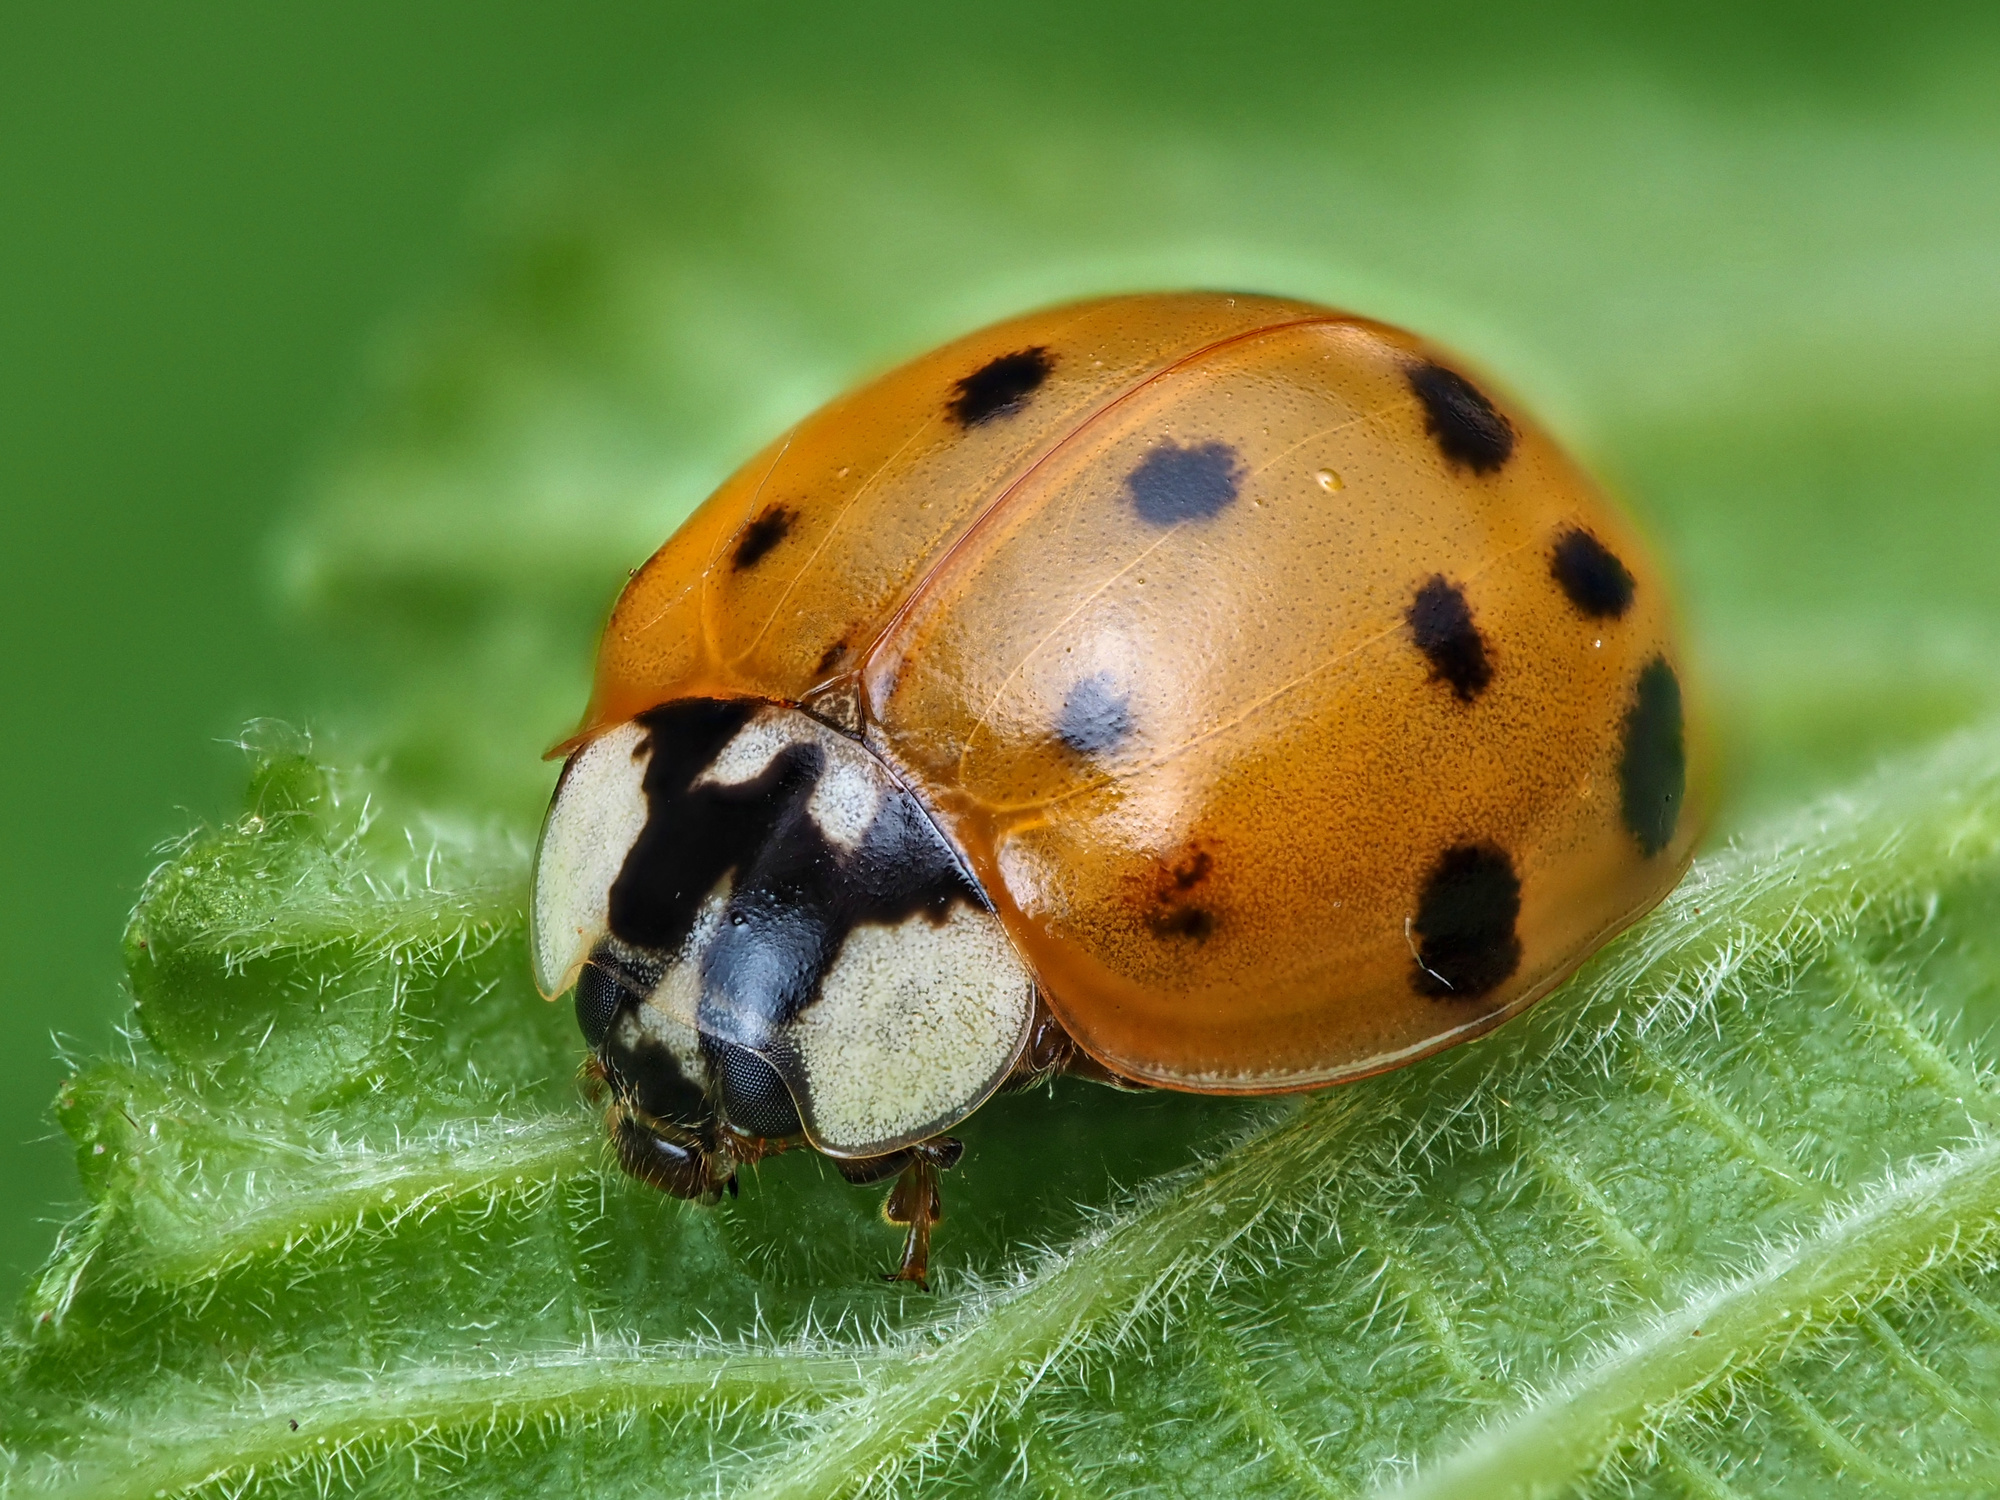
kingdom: Animalia
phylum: Arthropoda
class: Insecta
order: Coleoptera
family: Coccinellidae
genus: Harmonia
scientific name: Harmonia axyridis
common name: Harlequin ladybird
